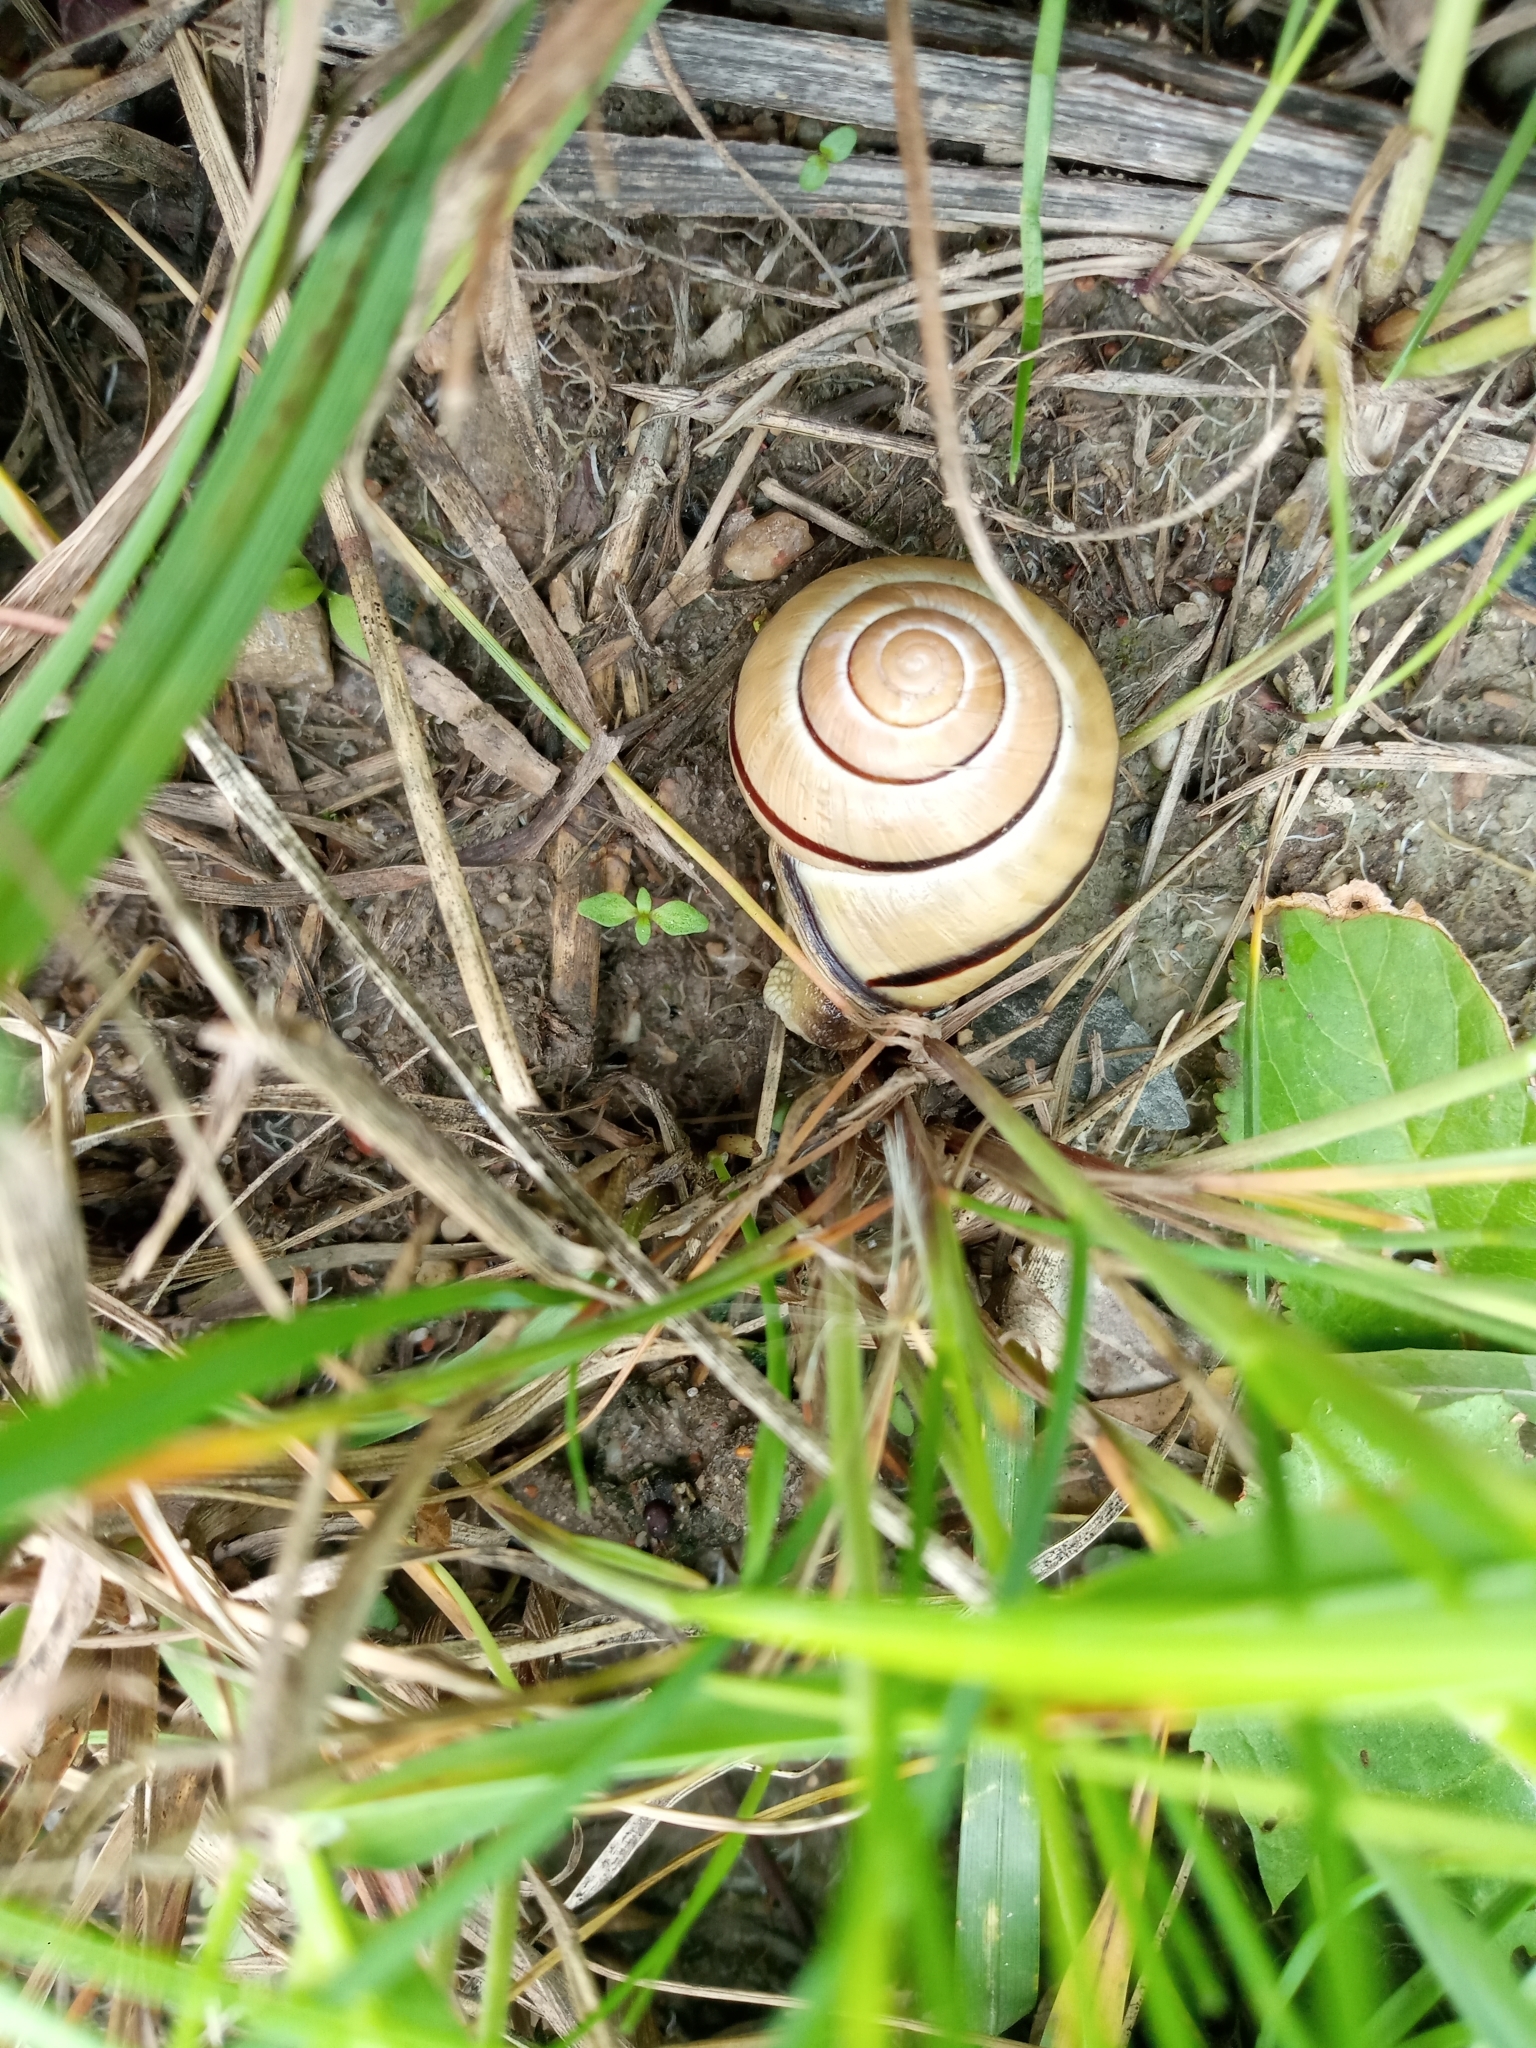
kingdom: Animalia
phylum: Mollusca
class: Gastropoda
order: Stylommatophora
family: Helicidae
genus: Cepaea
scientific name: Cepaea nemoralis
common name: Grovesnail
